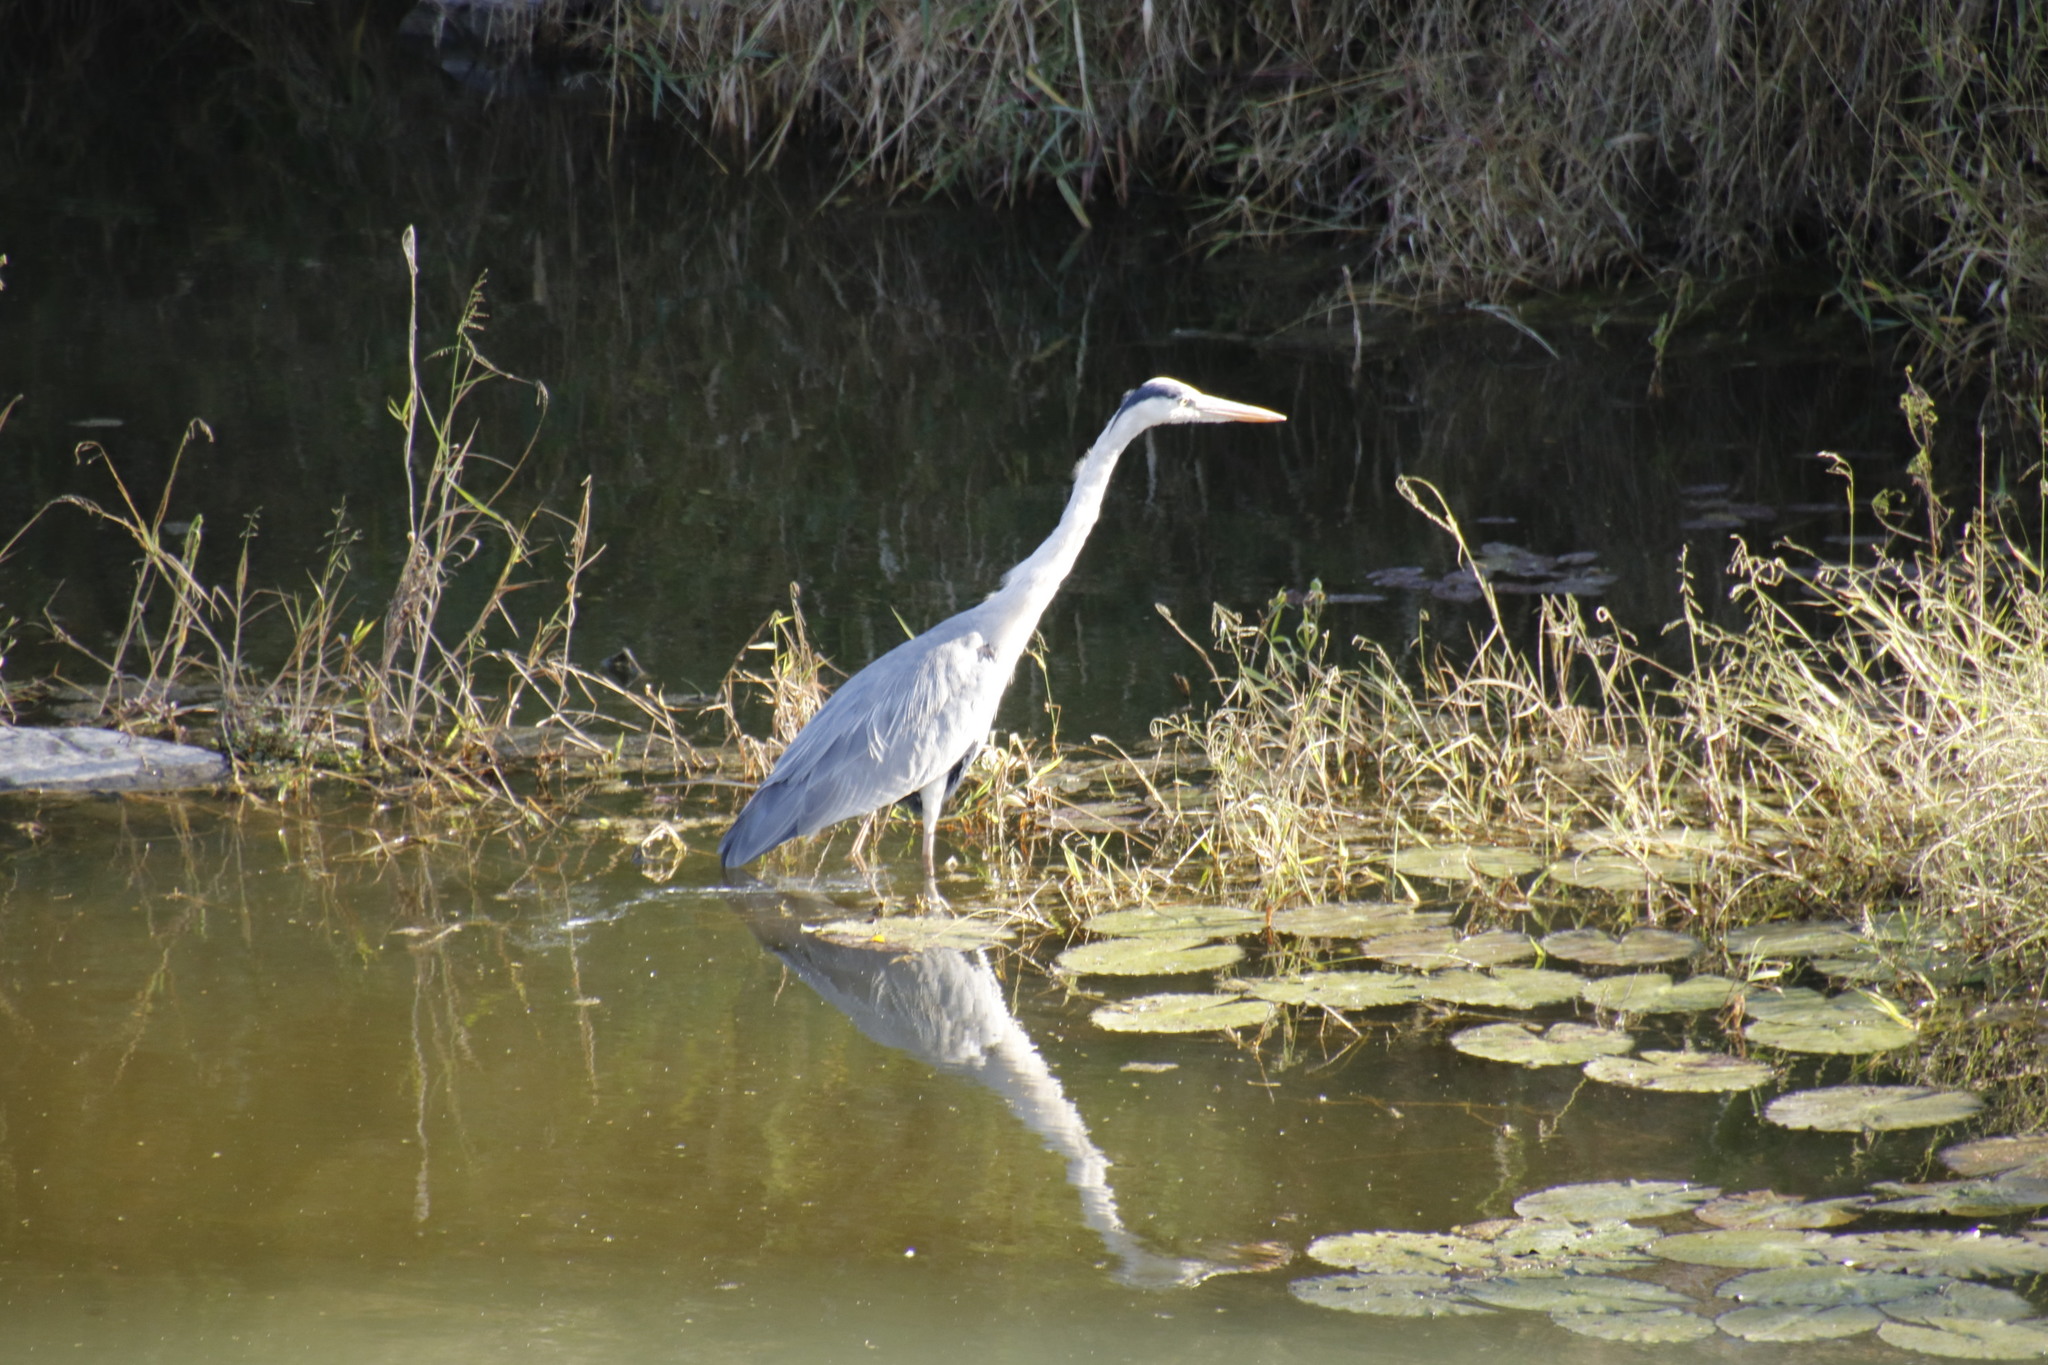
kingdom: Animalia
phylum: Chordata
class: Aves
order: Pelecaniformes
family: Ardeidae
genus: Ardea
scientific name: Ardea cinerea
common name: Grey heron
